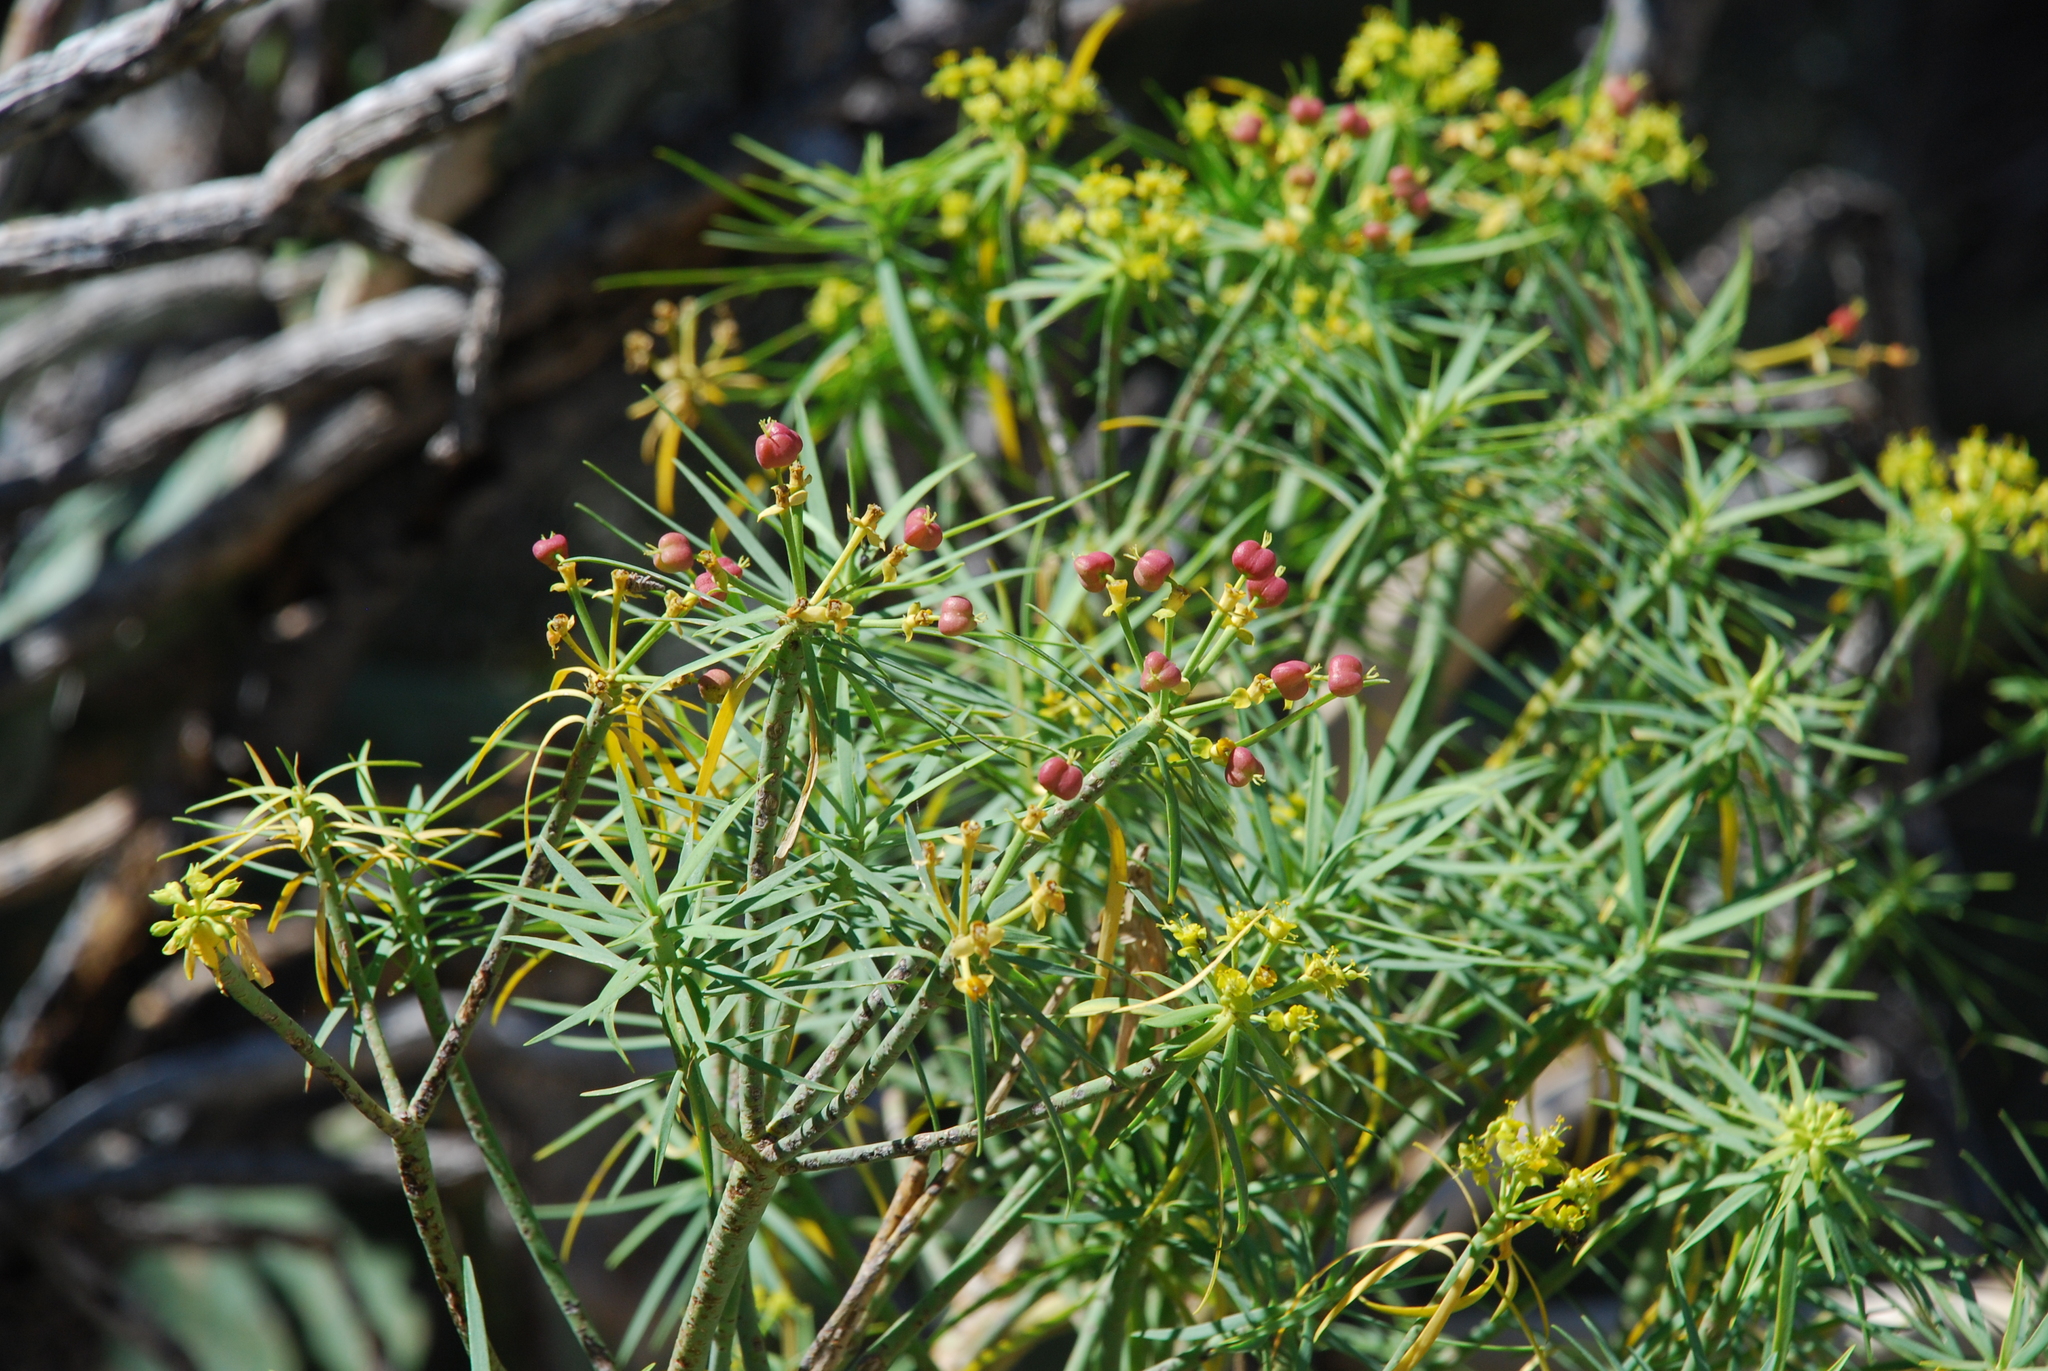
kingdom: Plantae
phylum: Tracheophyta
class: Magnoliopsida
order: Malpighiales
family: Euphorbiaceae
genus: Euphorbia
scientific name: Euphorbia lamarckii
